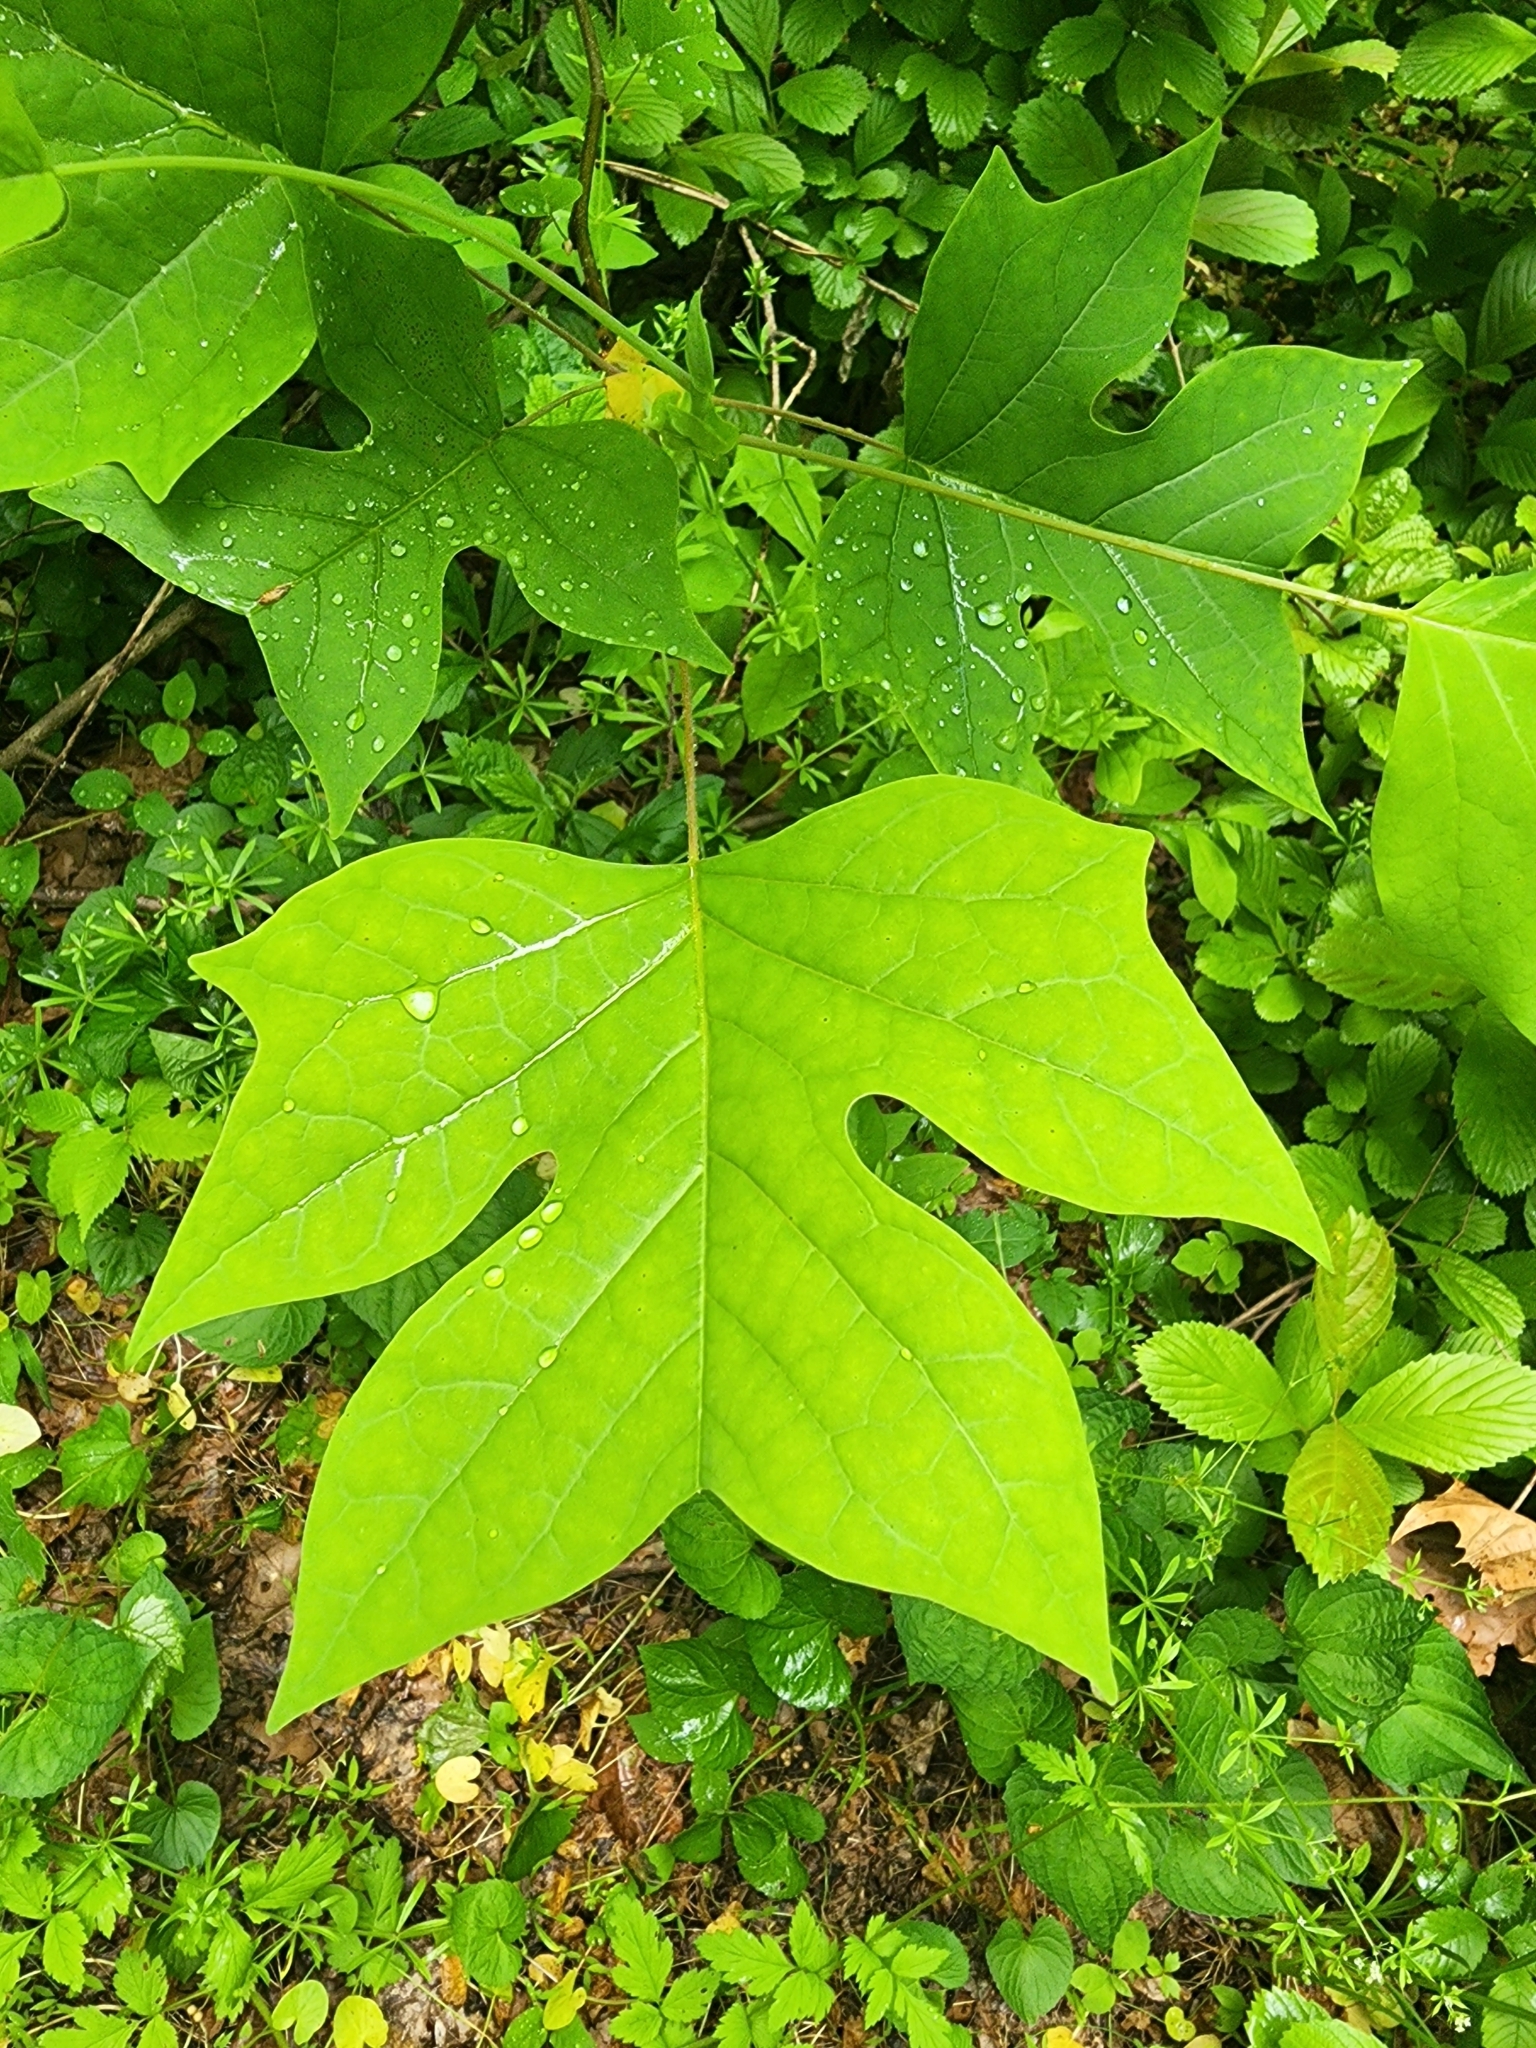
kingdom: Plantae
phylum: Tracheophyta
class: Magnoliopsida
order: Magnoliales
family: Magnoliaceae
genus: Liriodendron
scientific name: Liriodendron tulipifera
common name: Tulip tree
